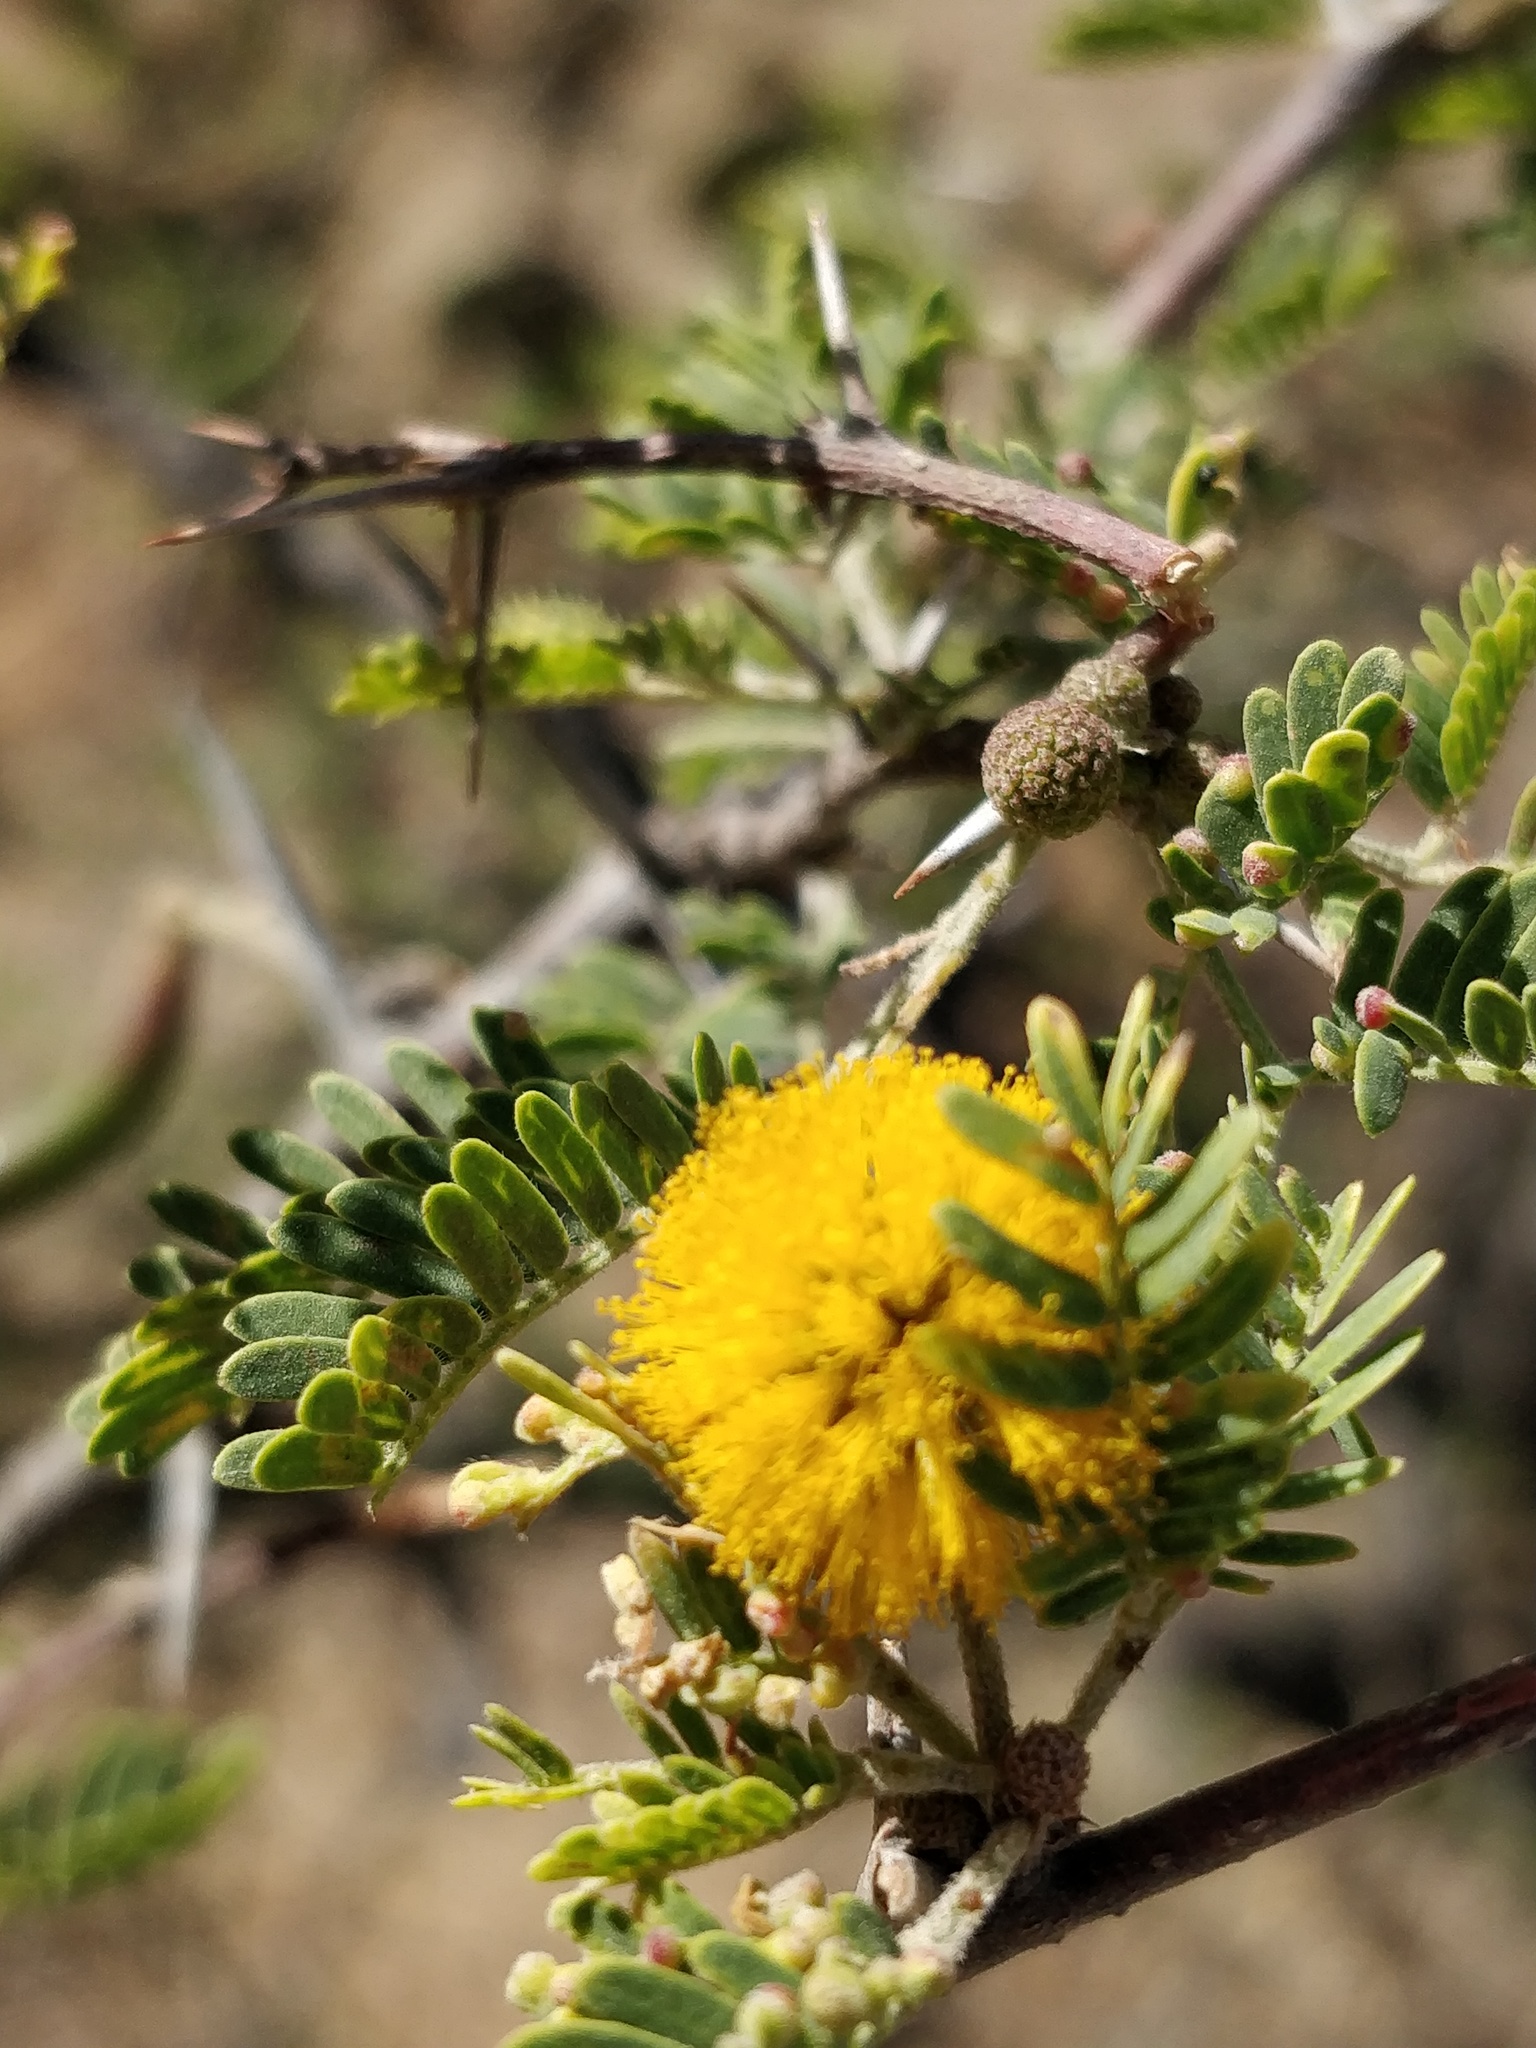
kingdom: Plantae
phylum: Tracheophyta
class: Magnoliopsida
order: Fabales
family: Fabaceae
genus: Vachellia
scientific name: Vachellia farnesiana
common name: Sweet acacia
